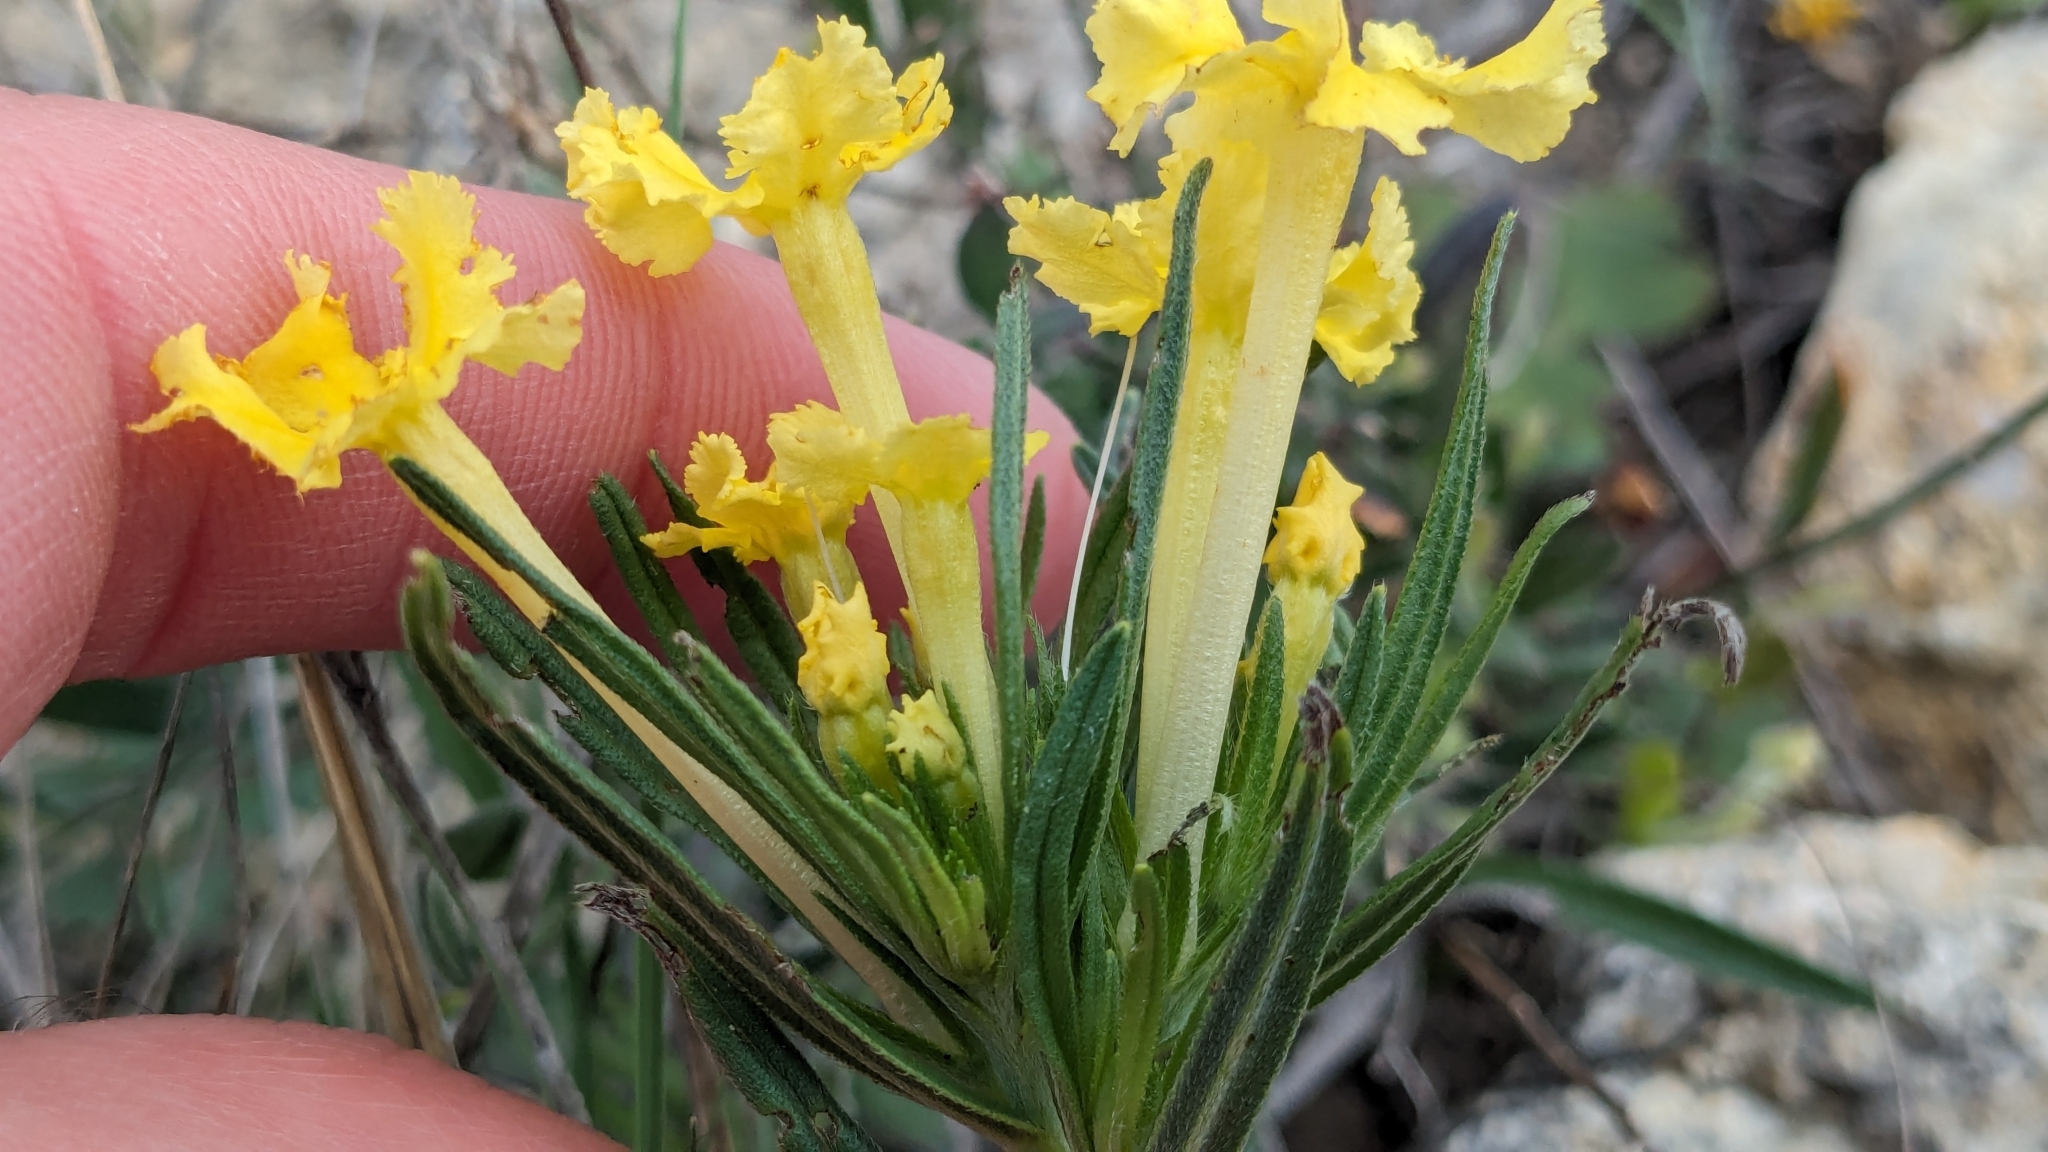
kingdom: Plantae
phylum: Tracheophyta
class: Magnoliopsida
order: Boraginales
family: Boraginaceae
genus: Lithospermum
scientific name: Lithospermum incisum
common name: Fringed gromwell
